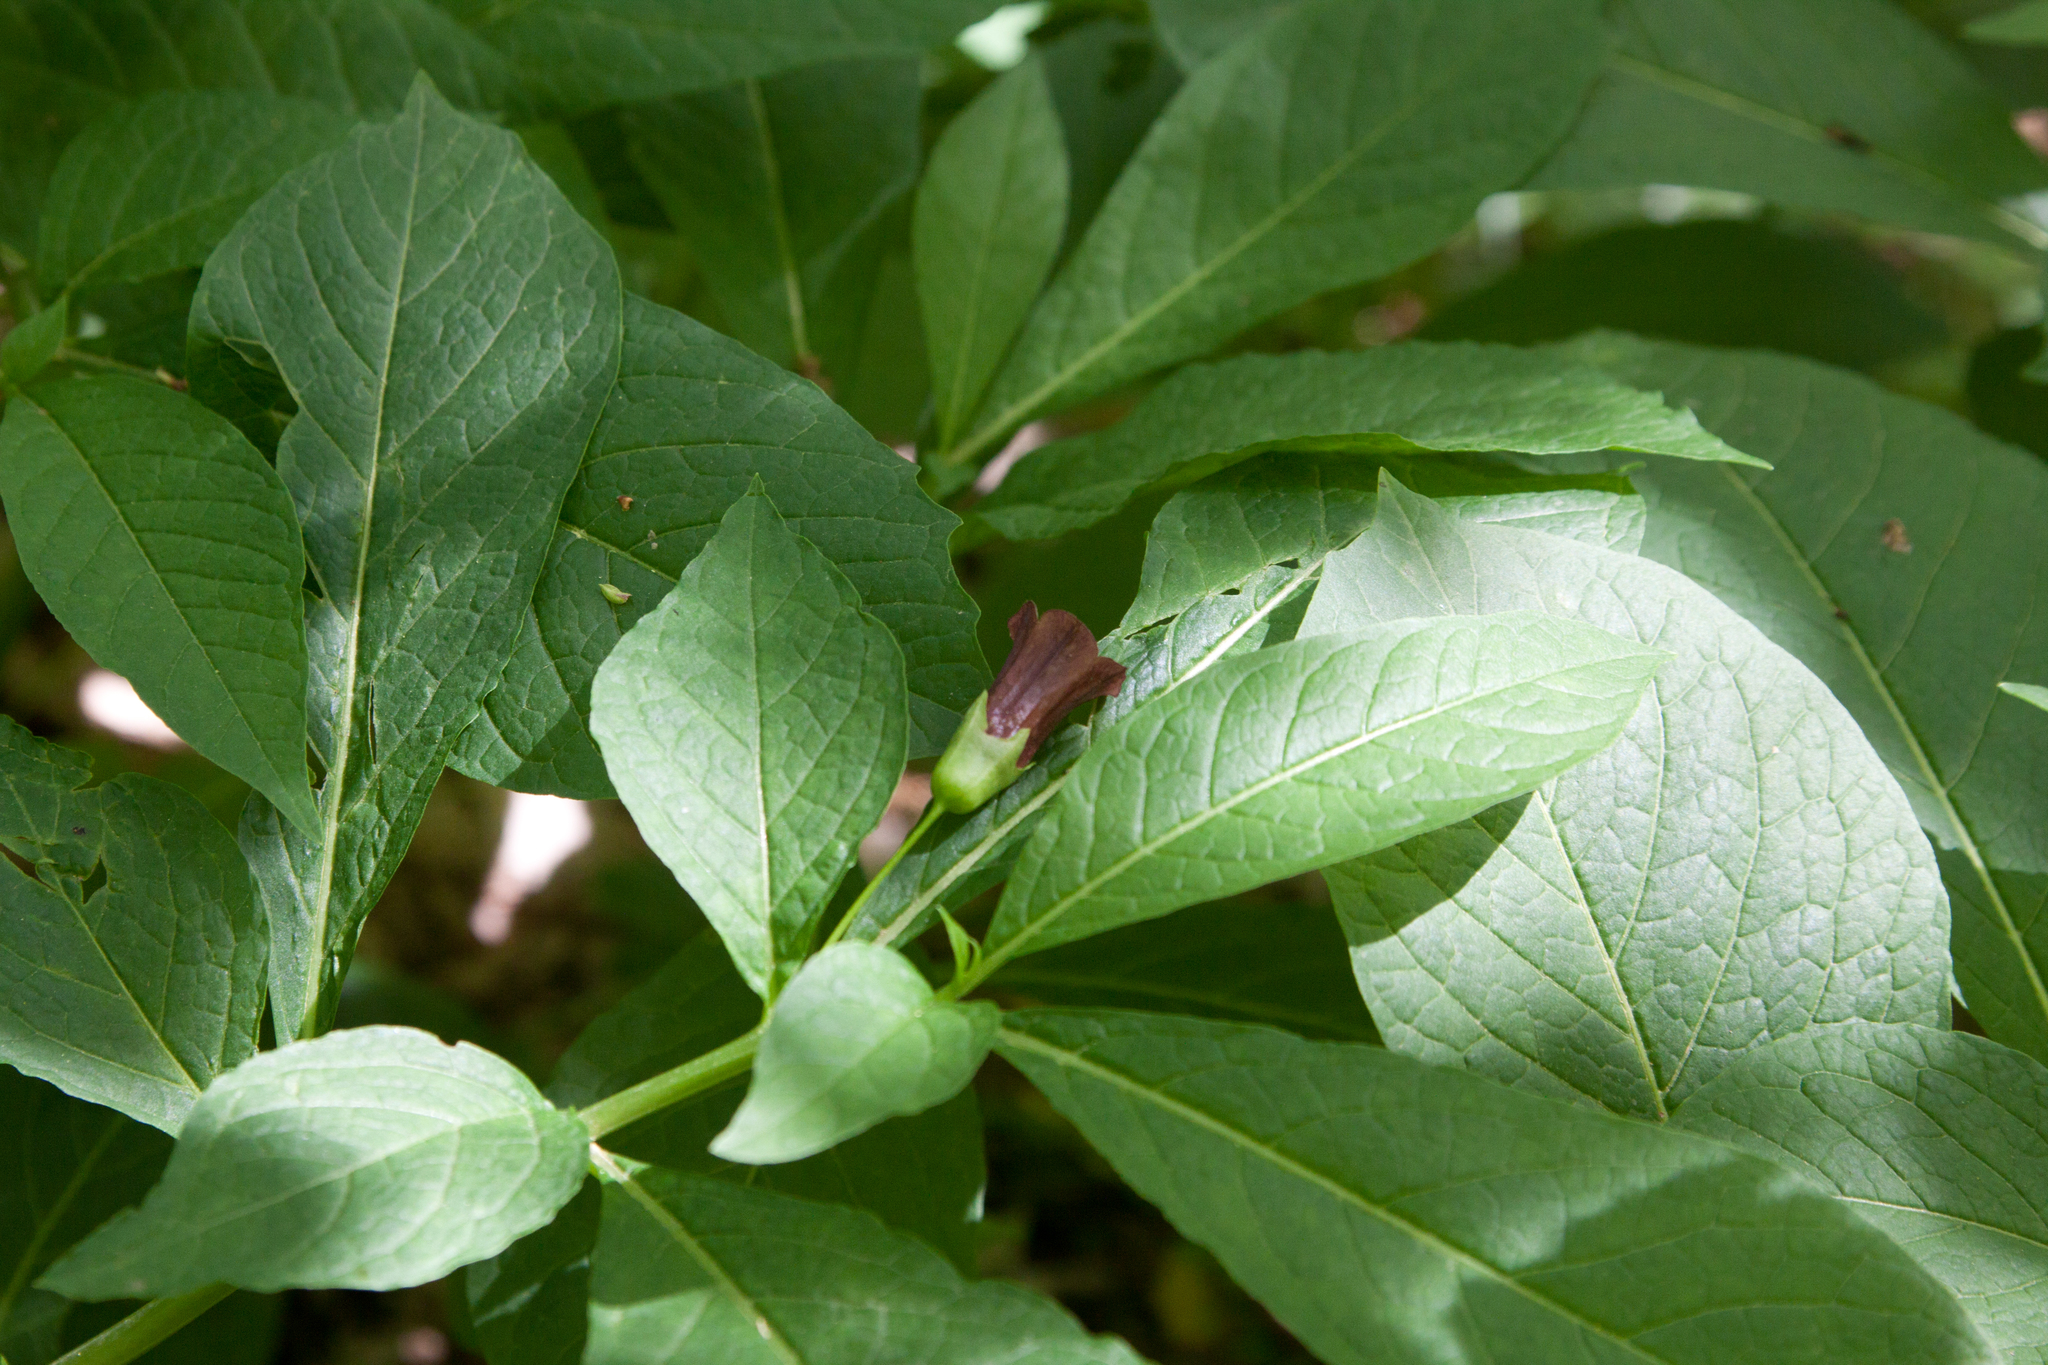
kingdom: Plantae
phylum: Tracheophyta
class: Magnoliopsida
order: Solanales
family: Solanaceae
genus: Scopolia
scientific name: Scopolia carniolica
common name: Scopolia
